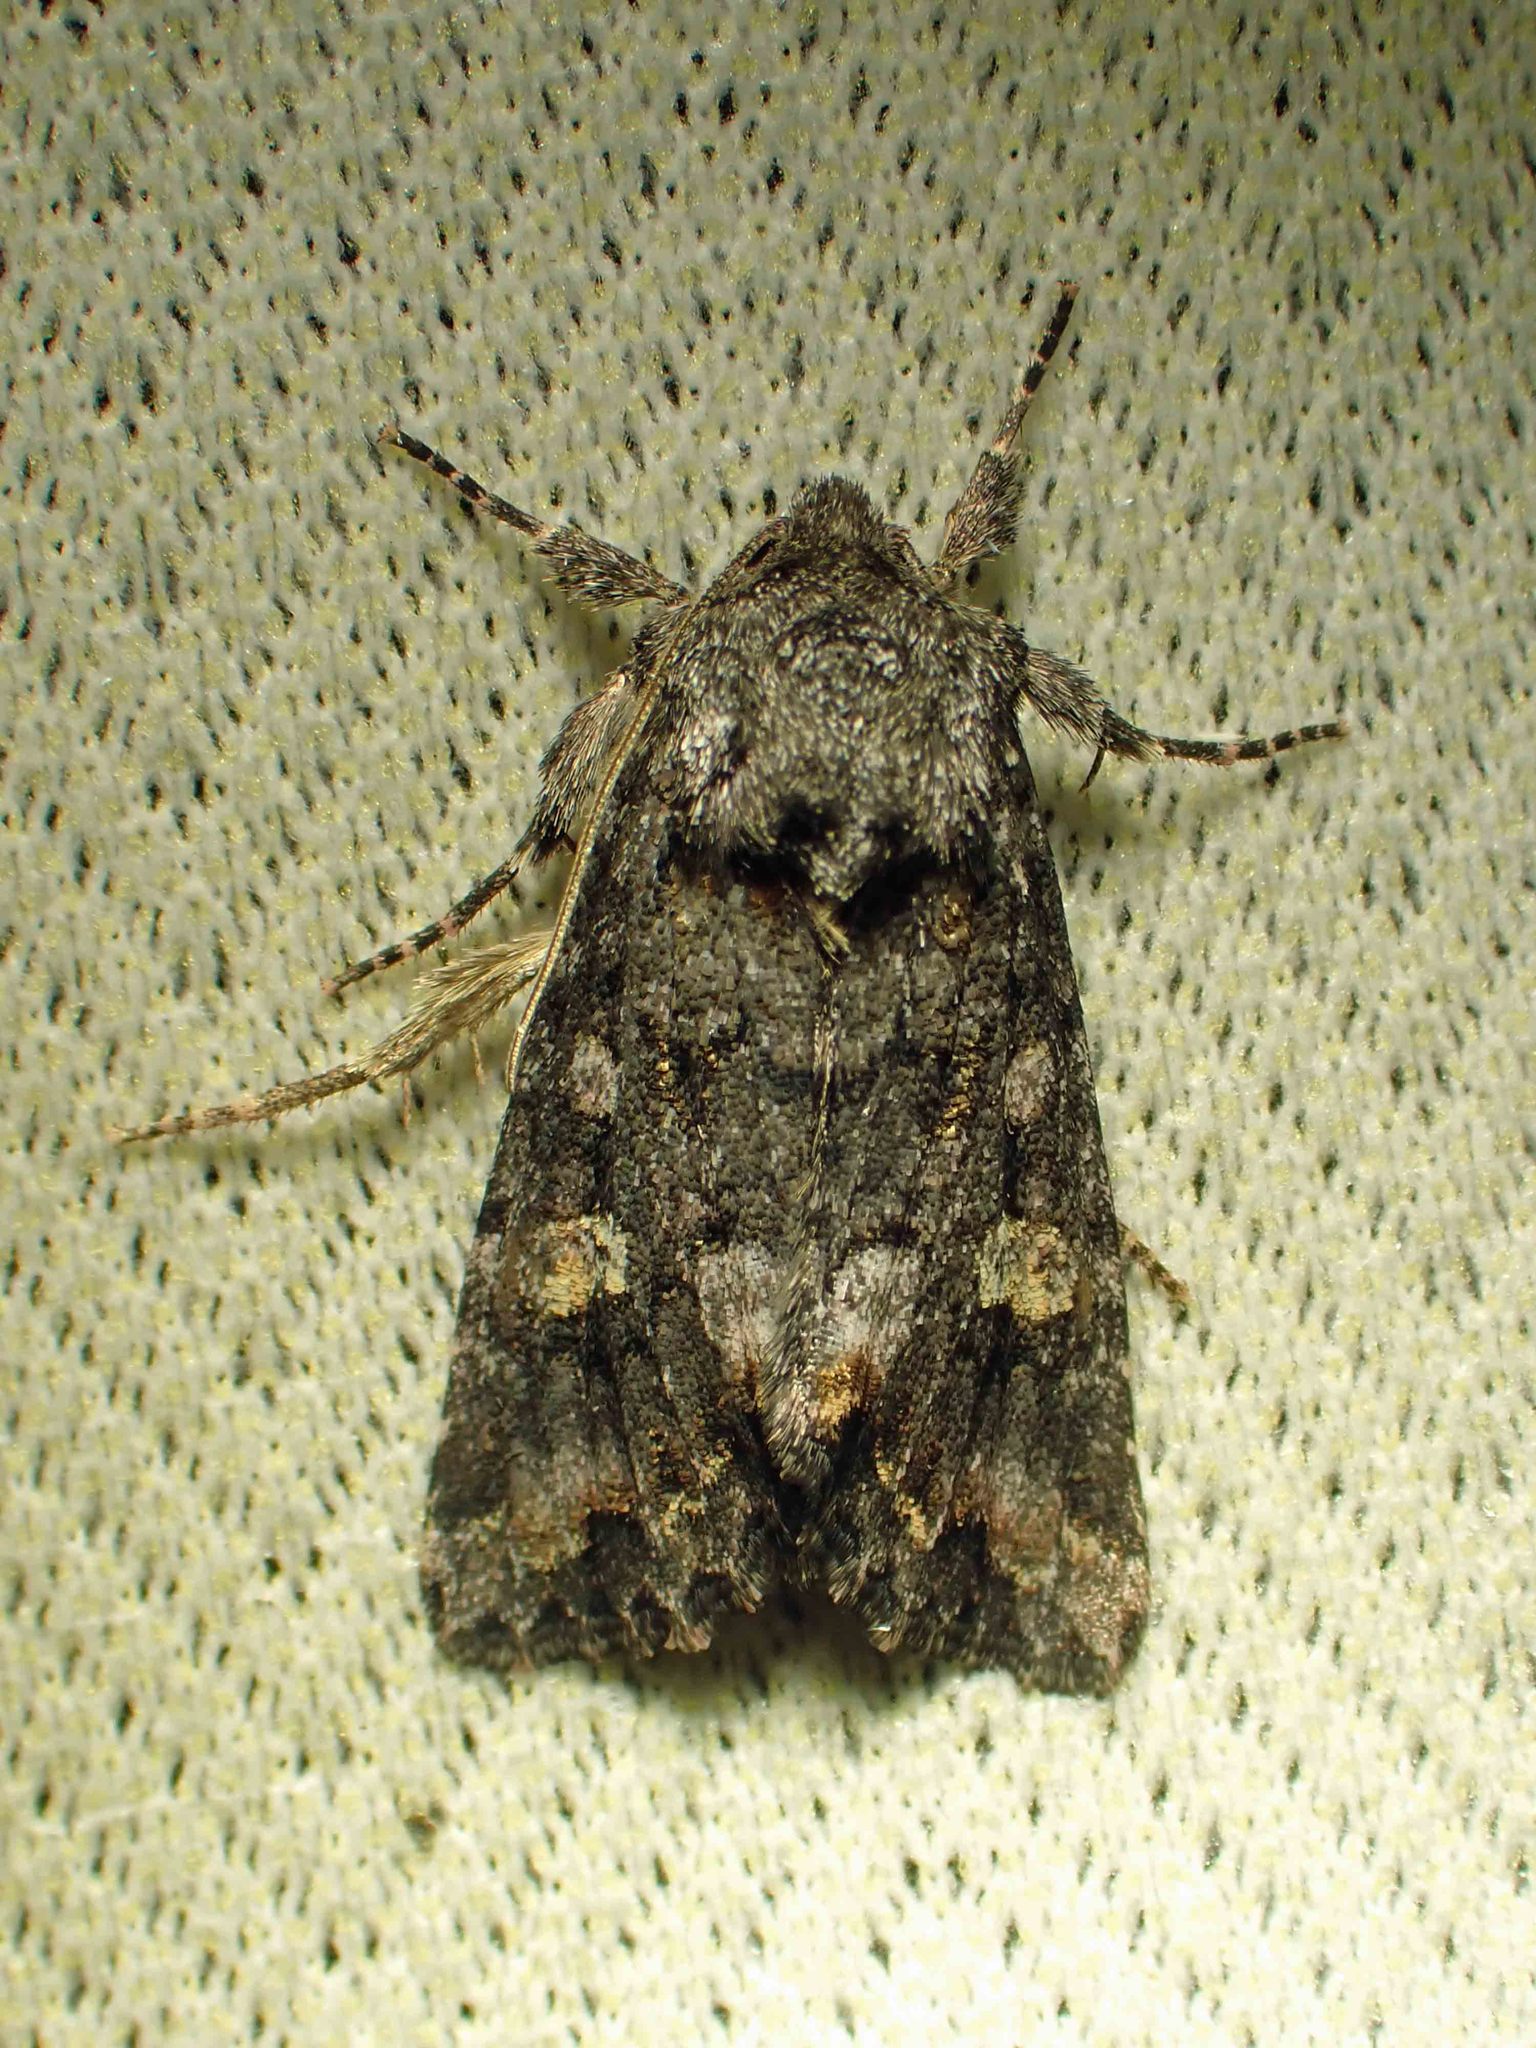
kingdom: Animalia
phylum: Arthropoda
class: Insecta
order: Lepidoptera
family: Noctuidae
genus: Spiramater
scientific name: Spiramater lutra
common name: Otter spiramater moth
